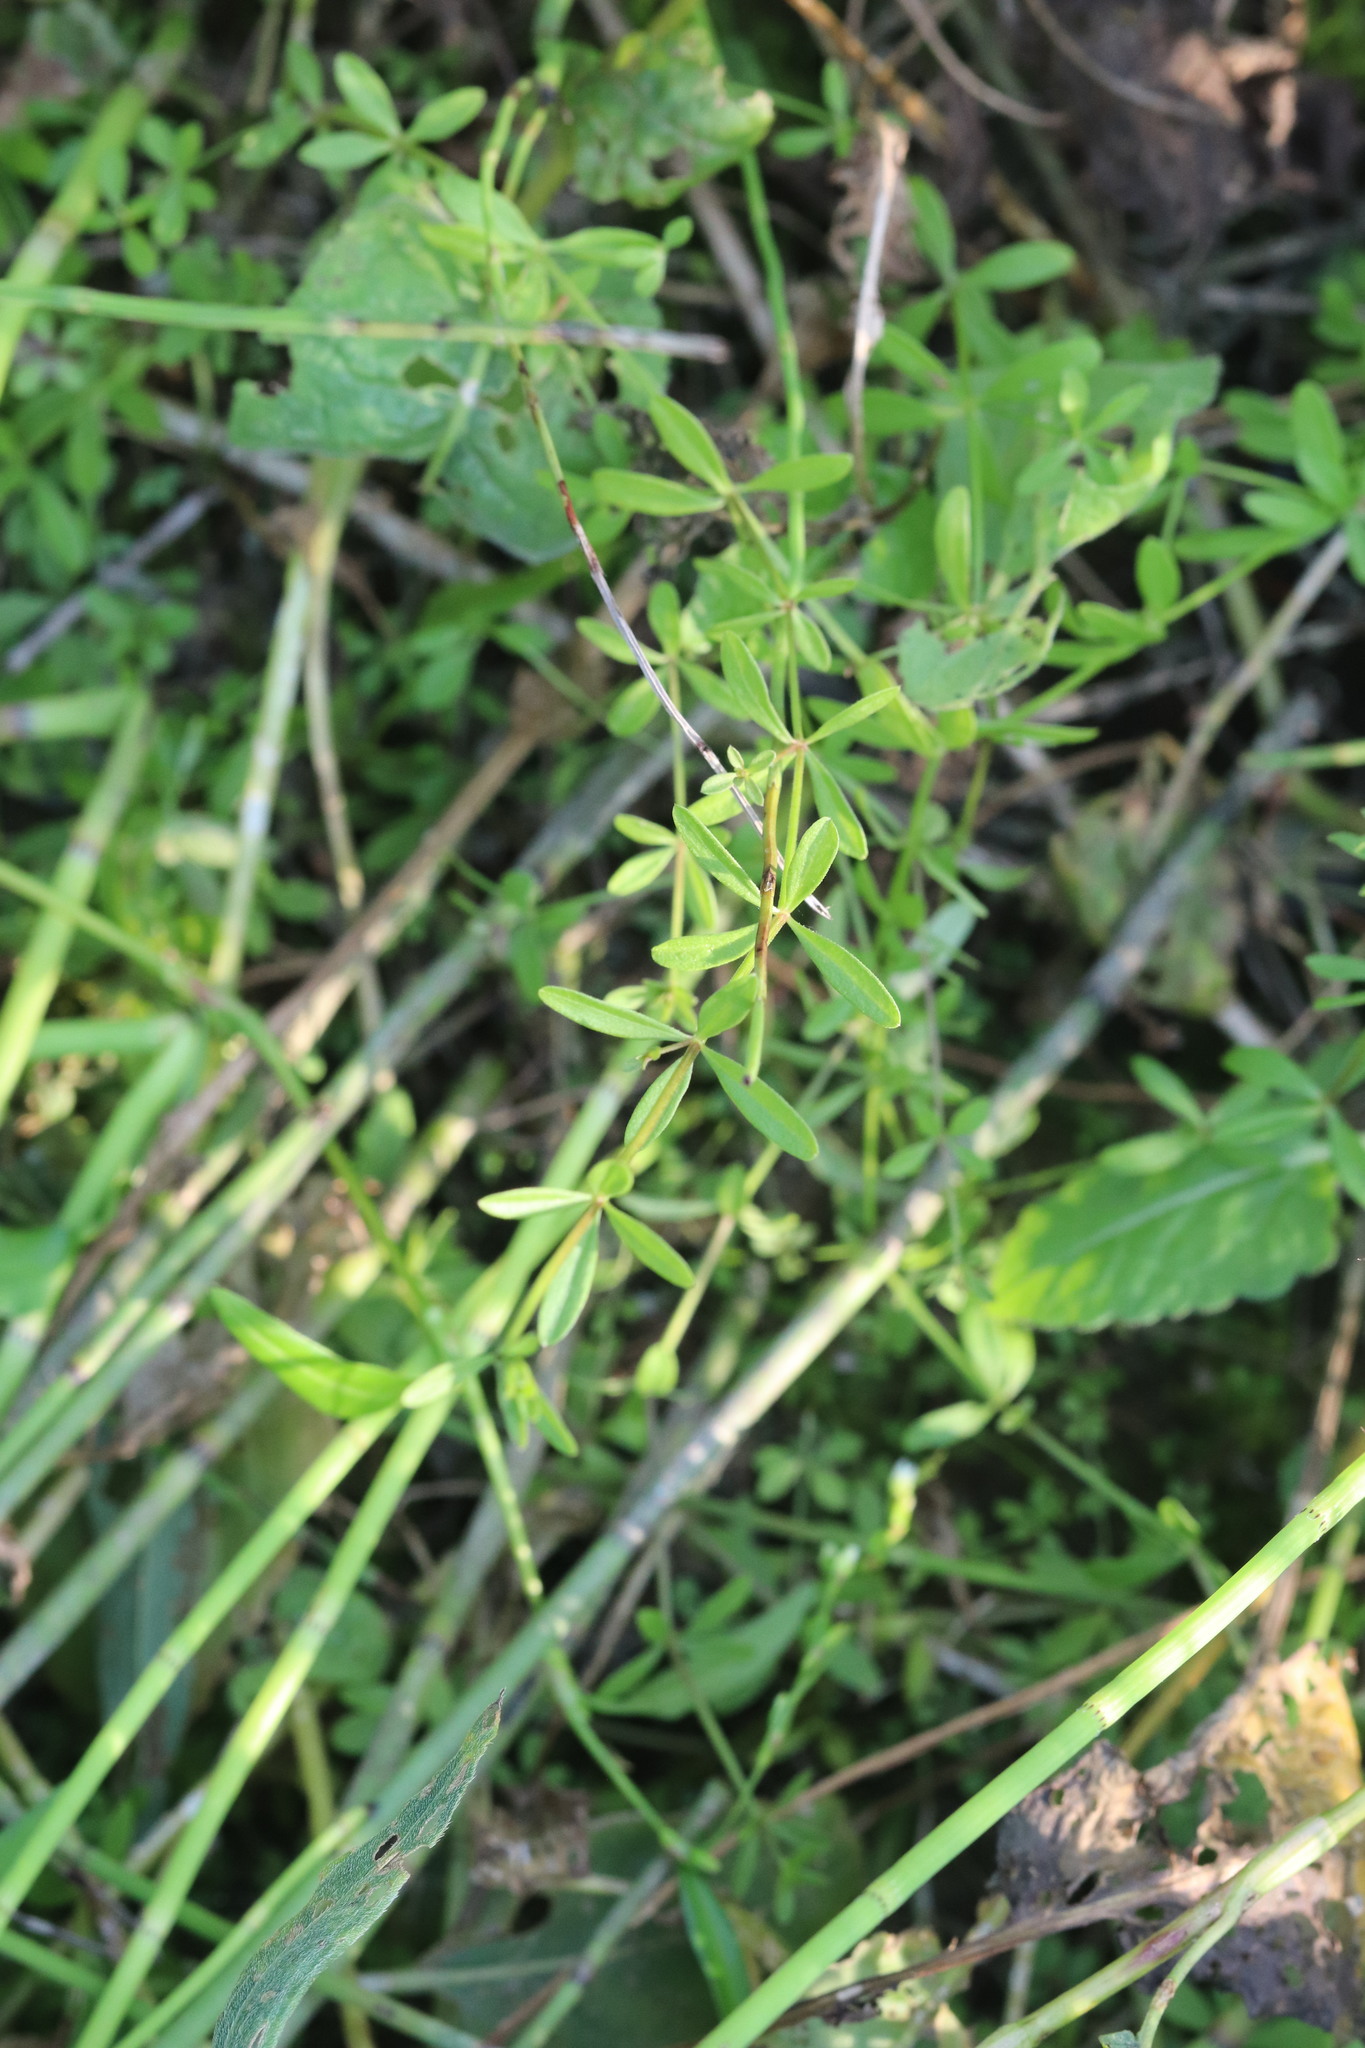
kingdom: Plantae
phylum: Tracheophyta
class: Magnoliopsida
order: Gentianales
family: Rubiaceae
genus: Galium
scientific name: Galium palustre
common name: Common marsh-bedstraw
